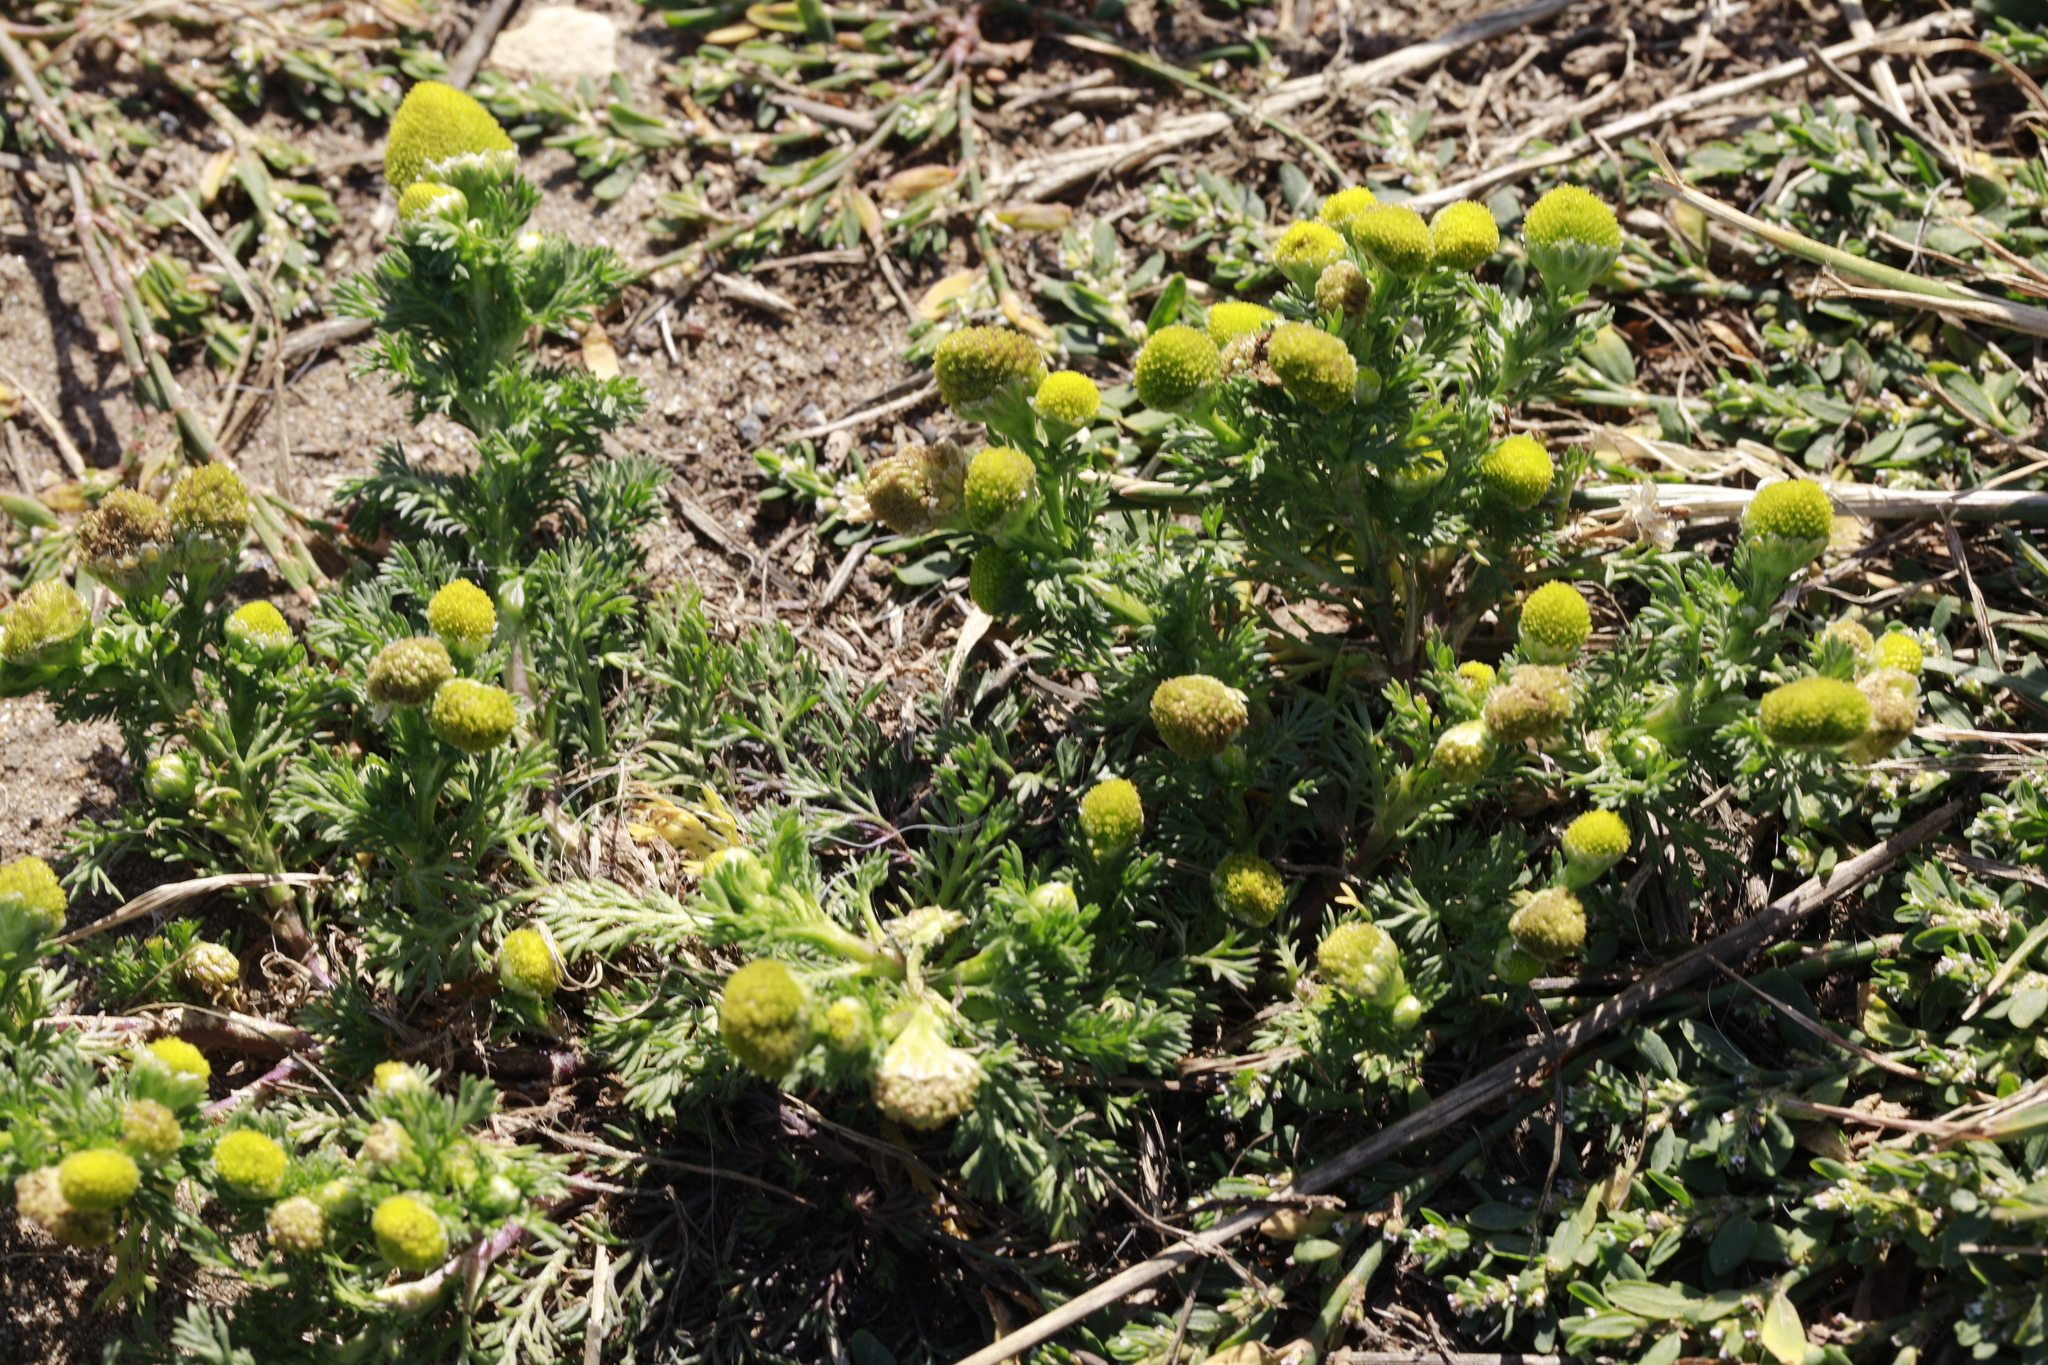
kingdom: Plantae
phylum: Tracheophyta
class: Magnoliopsida
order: Asterales
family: Asteraceae
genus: Matricaria
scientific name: Matricaria discoidea
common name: Disc mayweed
